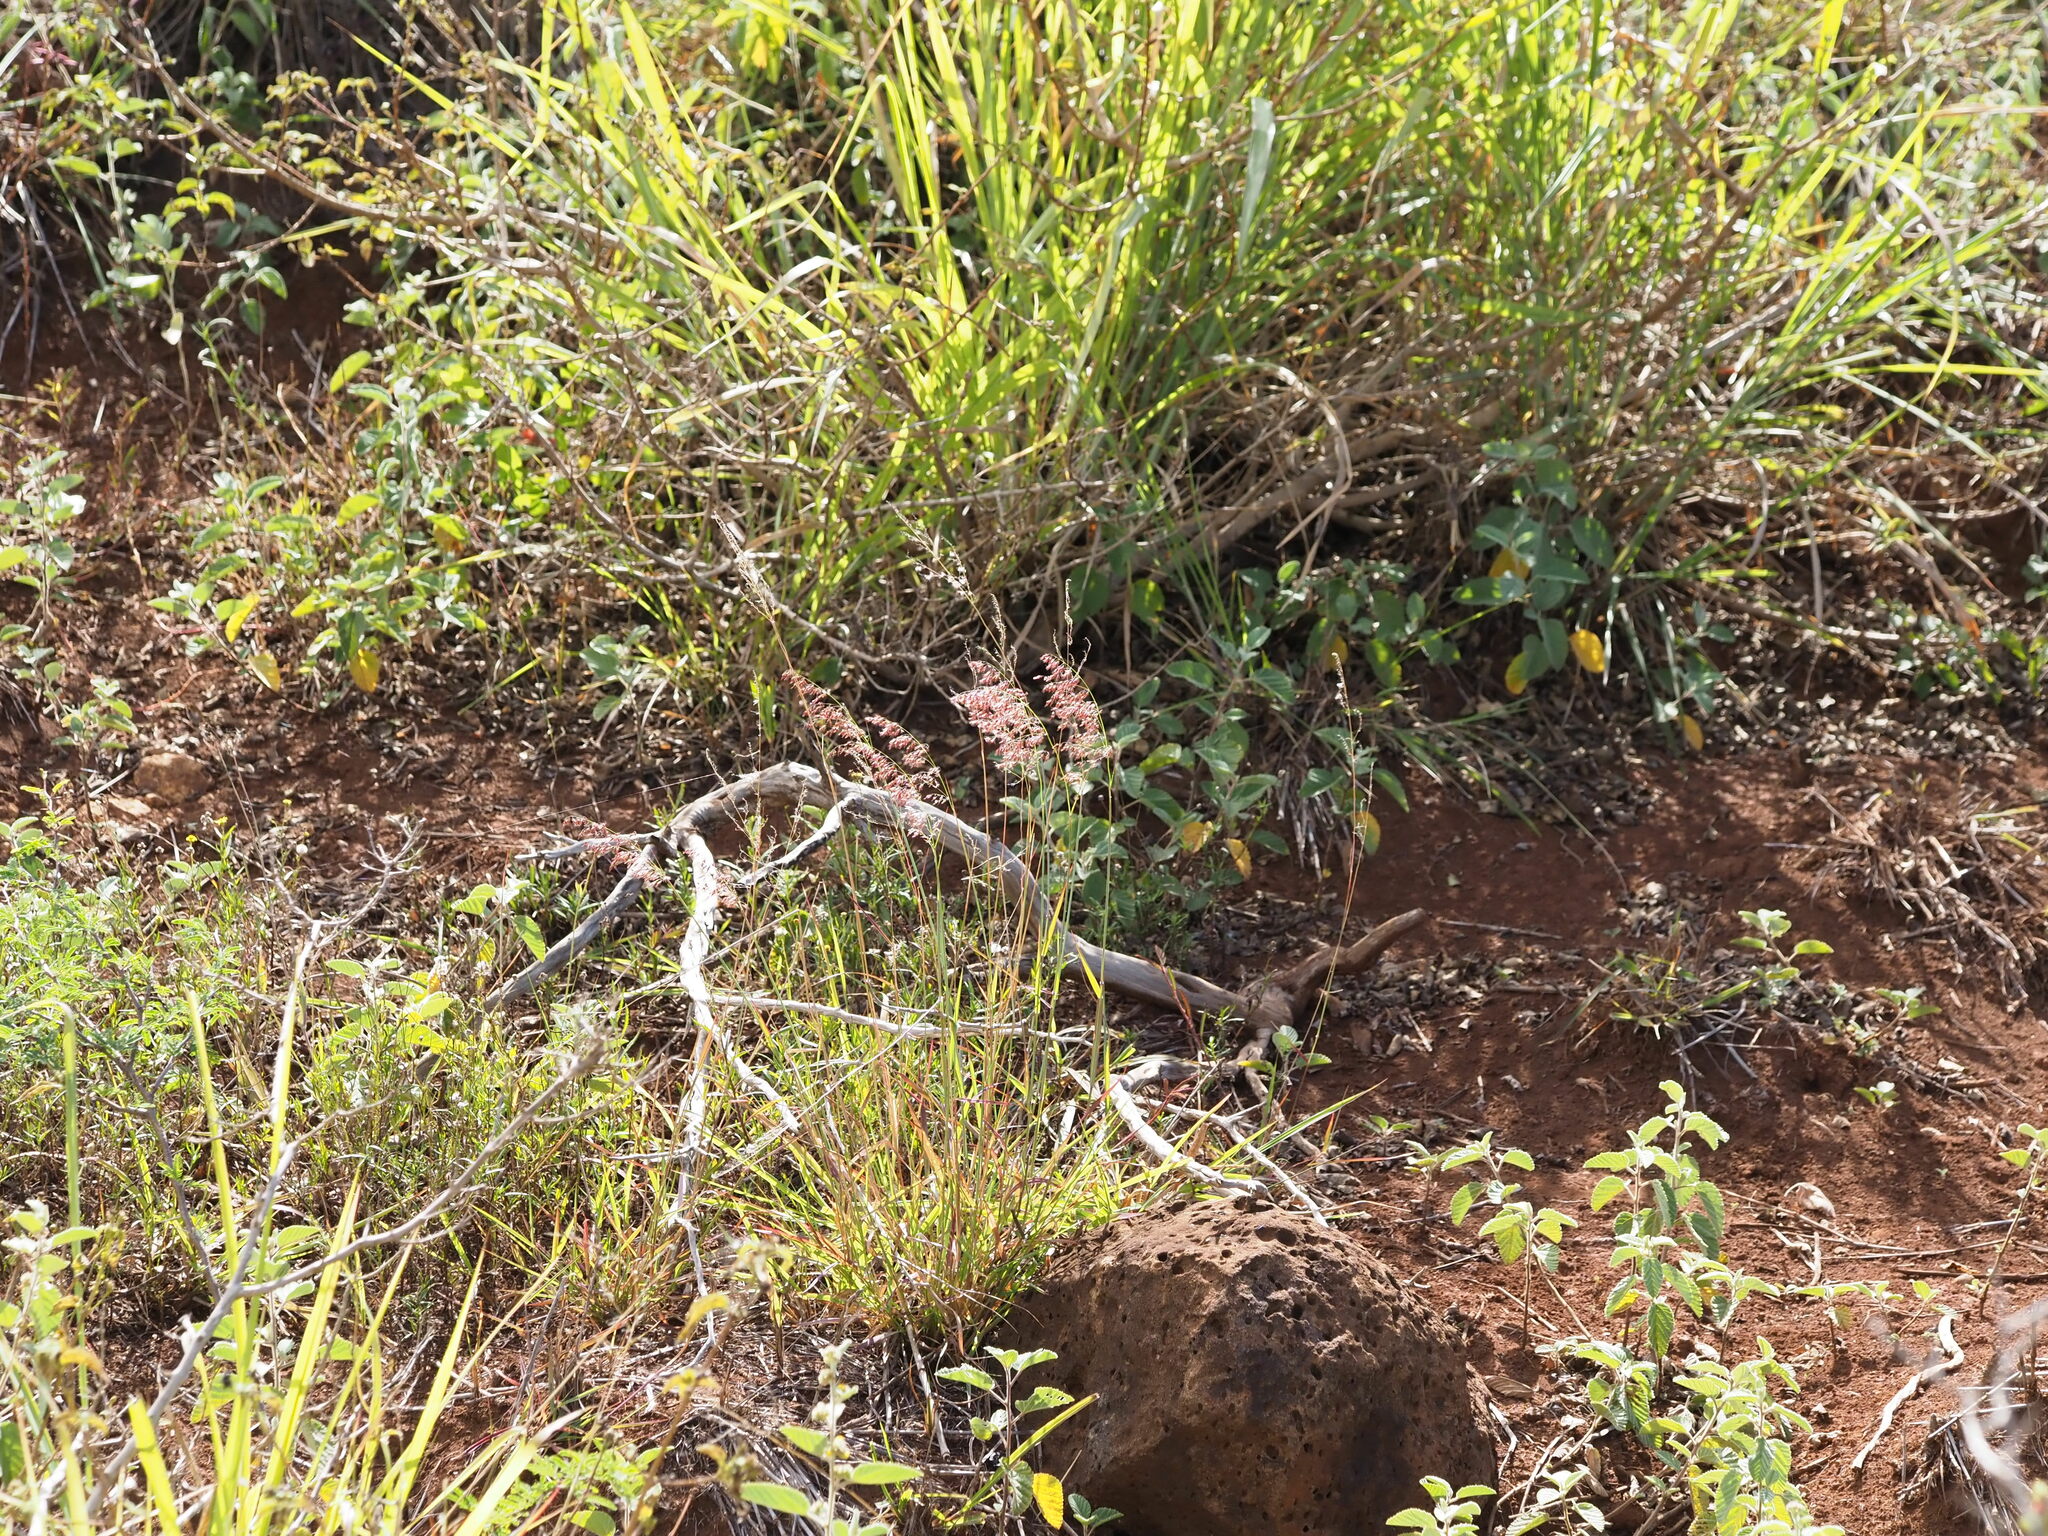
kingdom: Plantae
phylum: Tracheophyta
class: Liliopsida
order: Poales
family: Poaceae
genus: Melinis
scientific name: Melinis repens
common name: Rose natal grass
